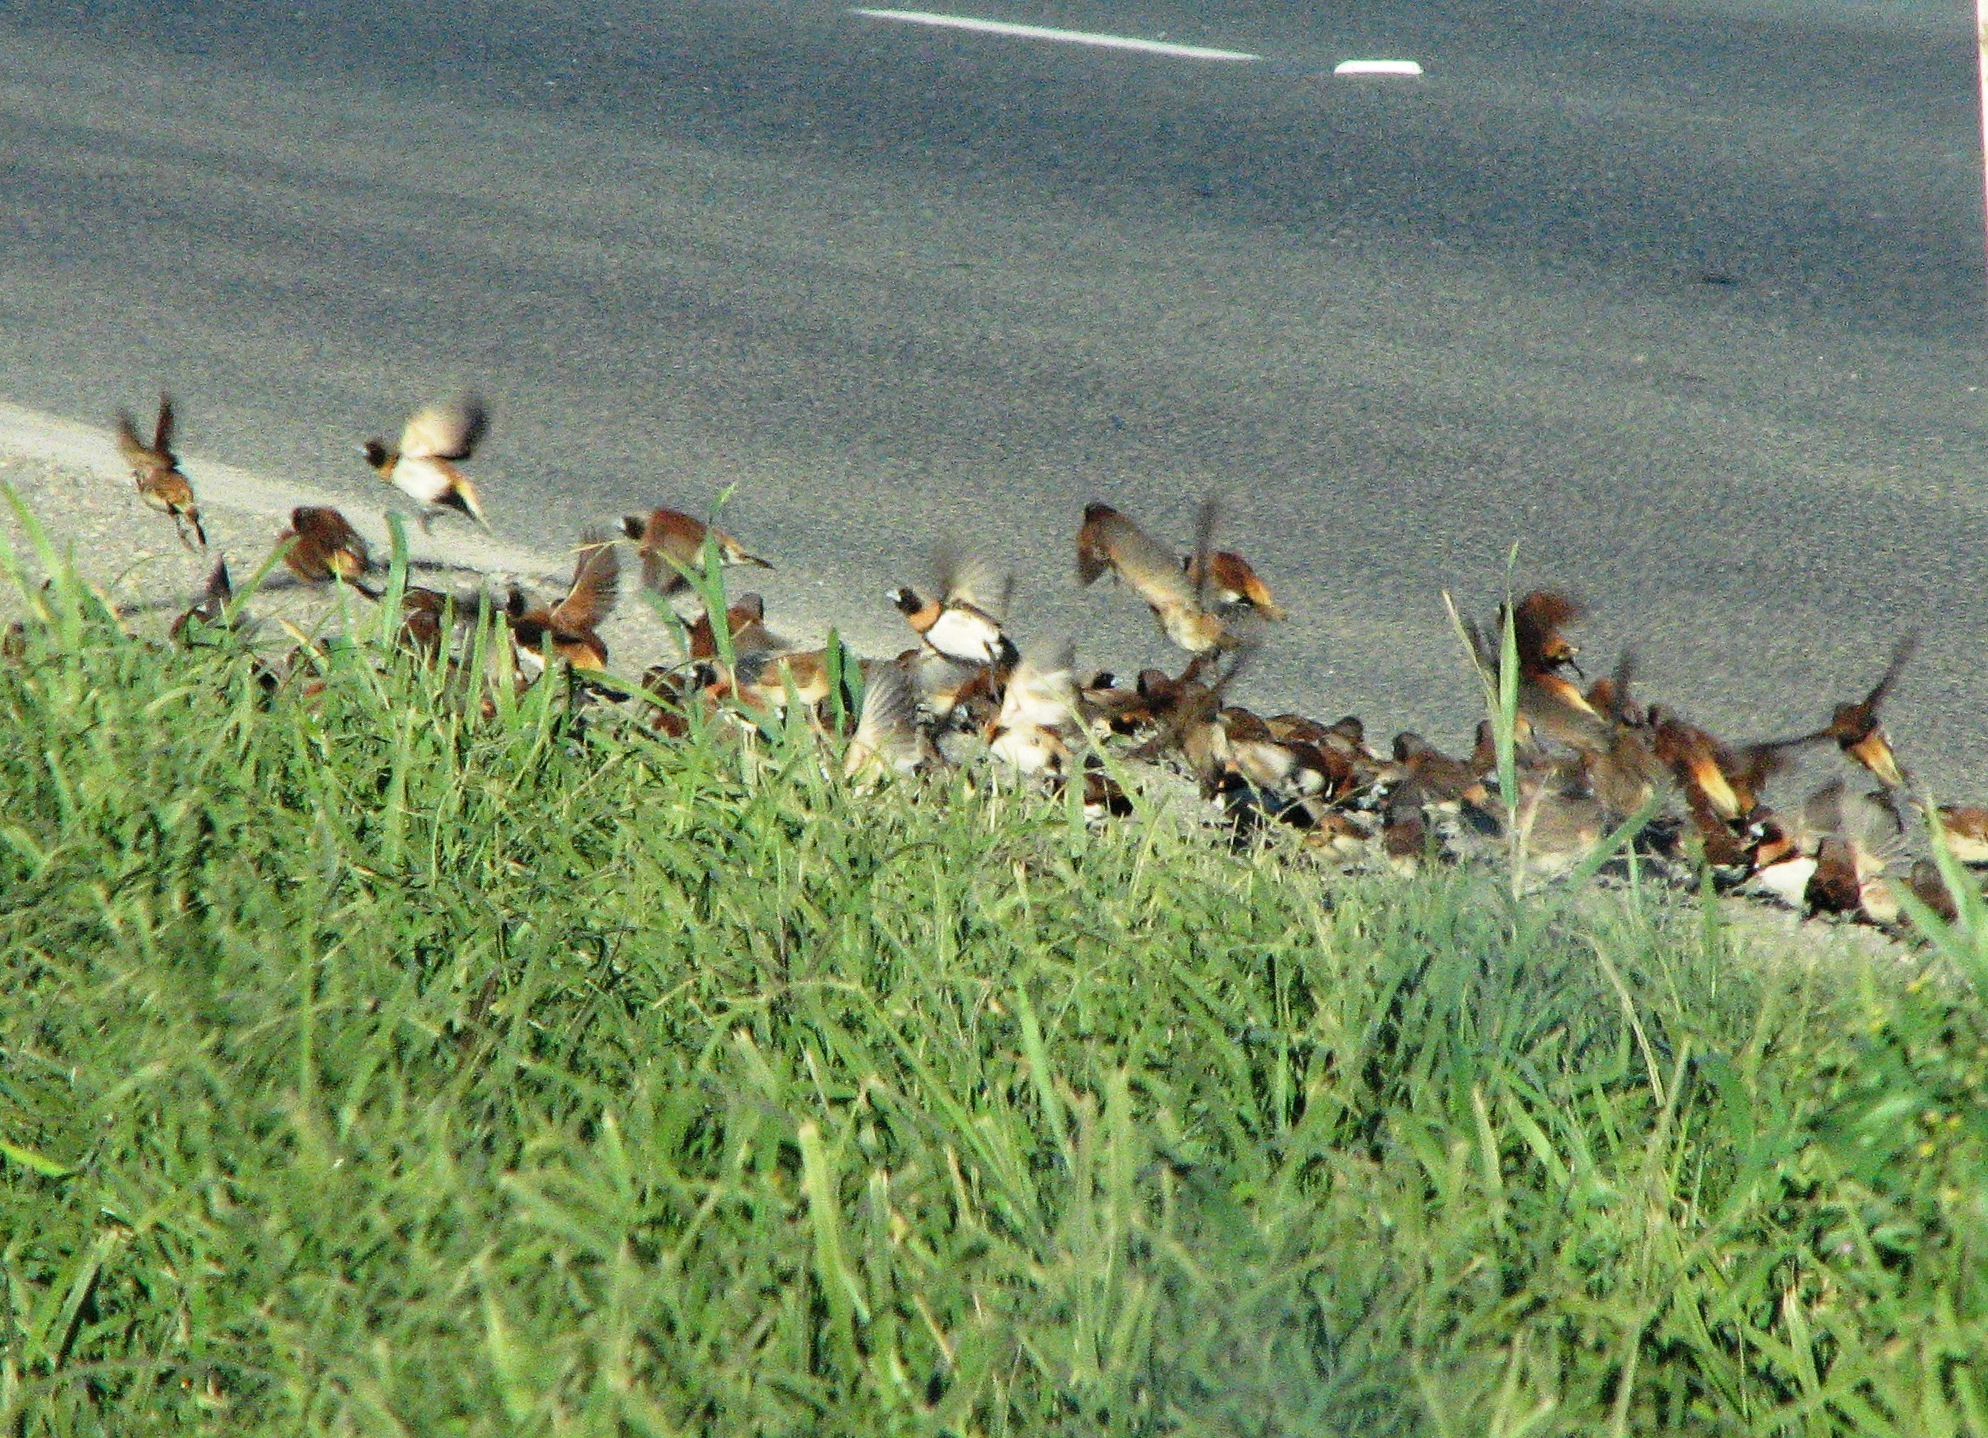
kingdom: Animalia
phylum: Chordata
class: Aves
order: Passeriformes
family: Estrildidae
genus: Lonchura
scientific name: Lonchura castaneothorax
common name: Chestnut-breasted mannikin
